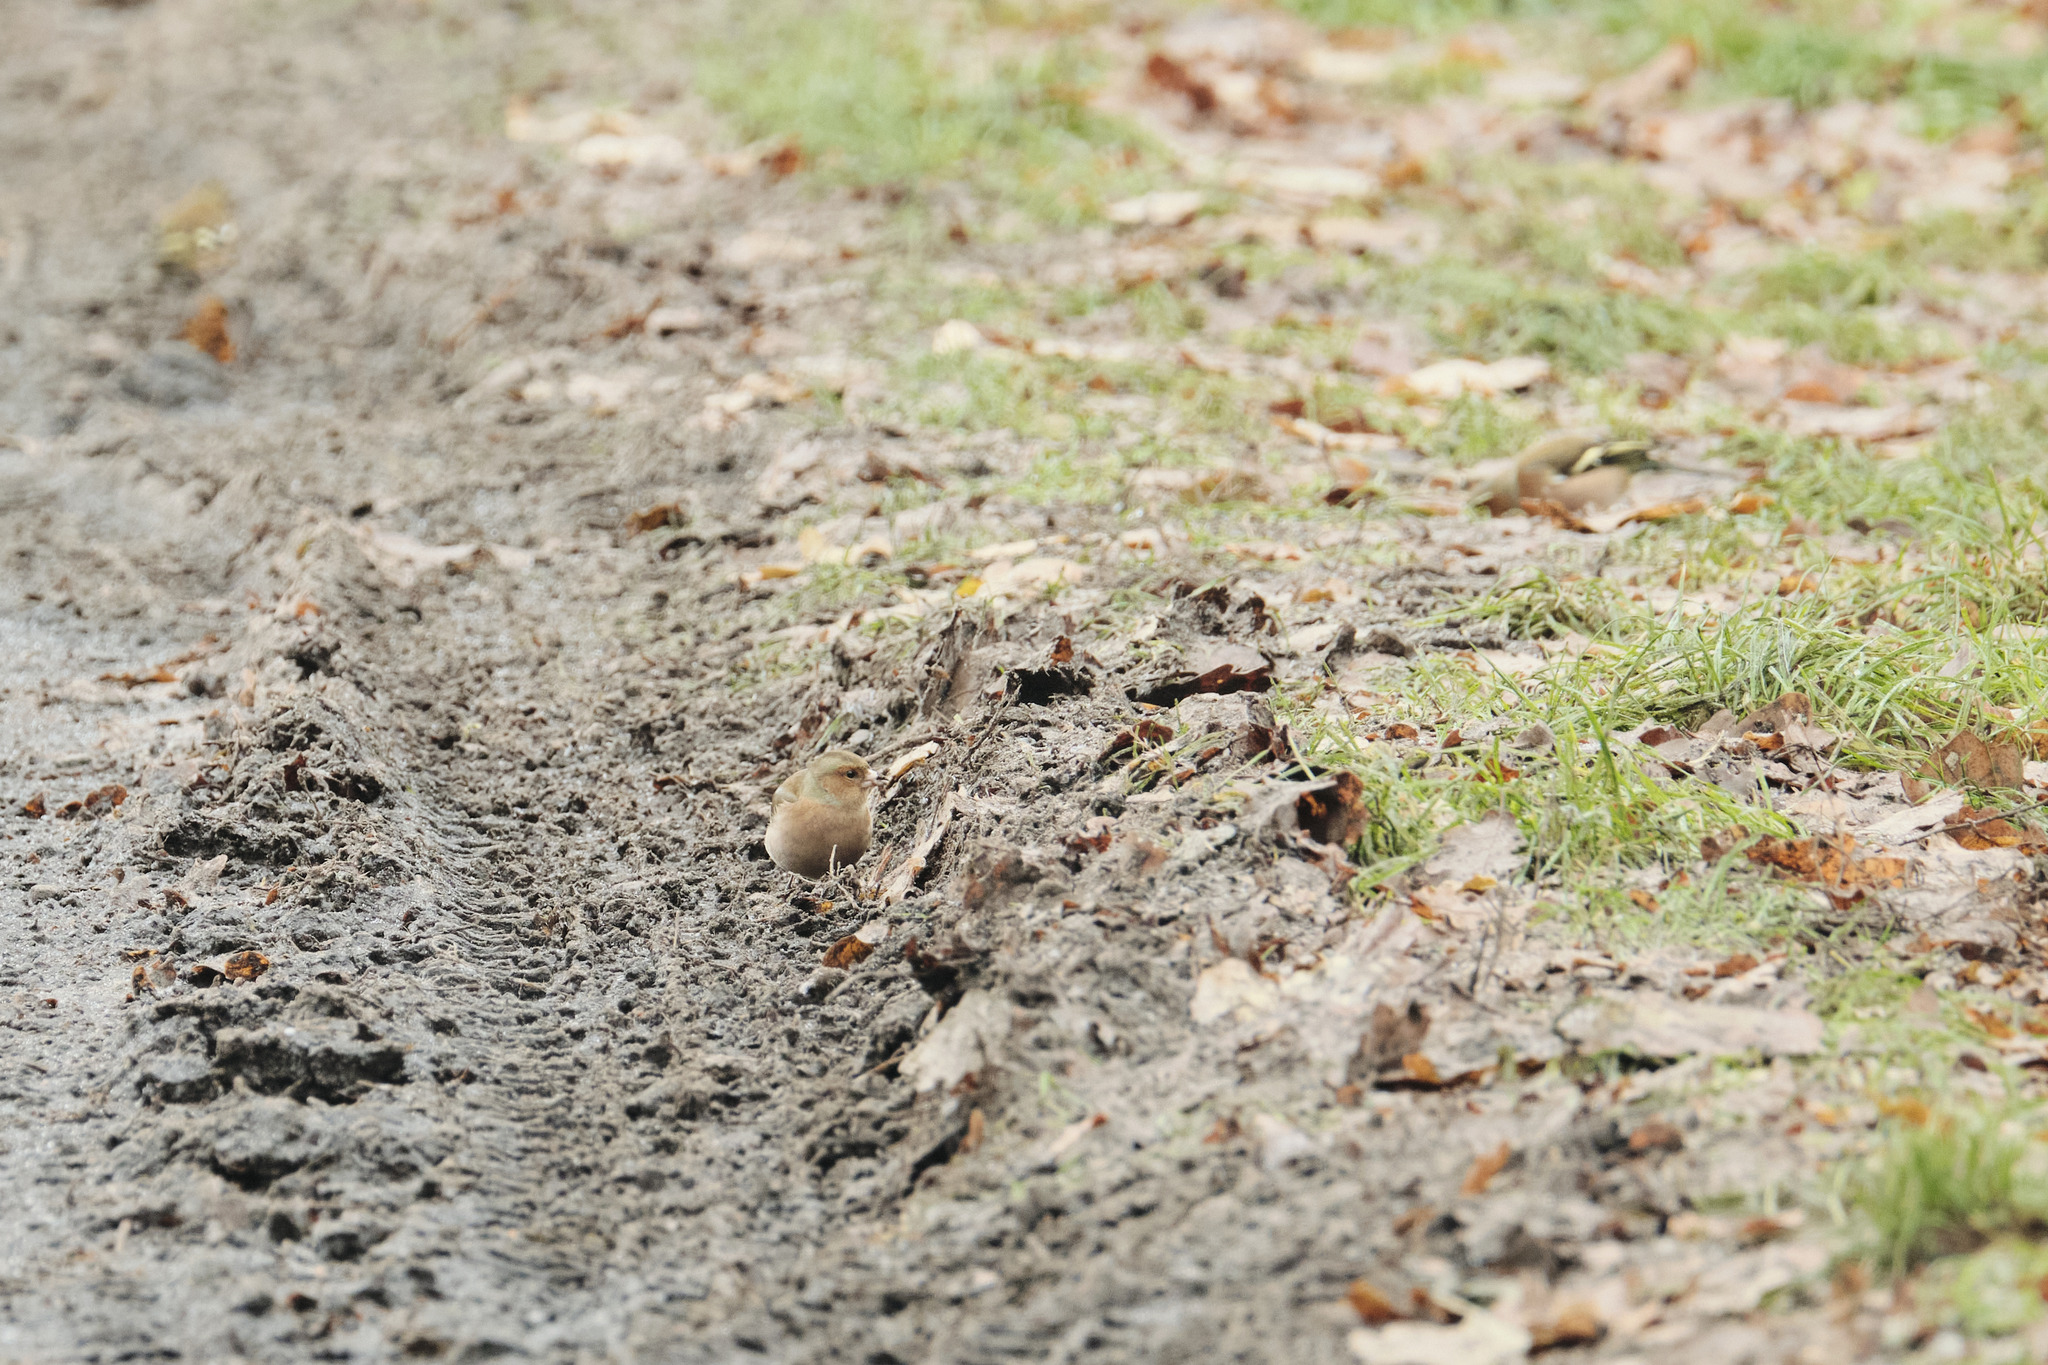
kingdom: Animalia
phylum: Chordata
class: Aves
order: Passeriformes
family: Fringillidae
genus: Fringilla
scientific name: Fringilla coelebs
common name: Common chaffinch
